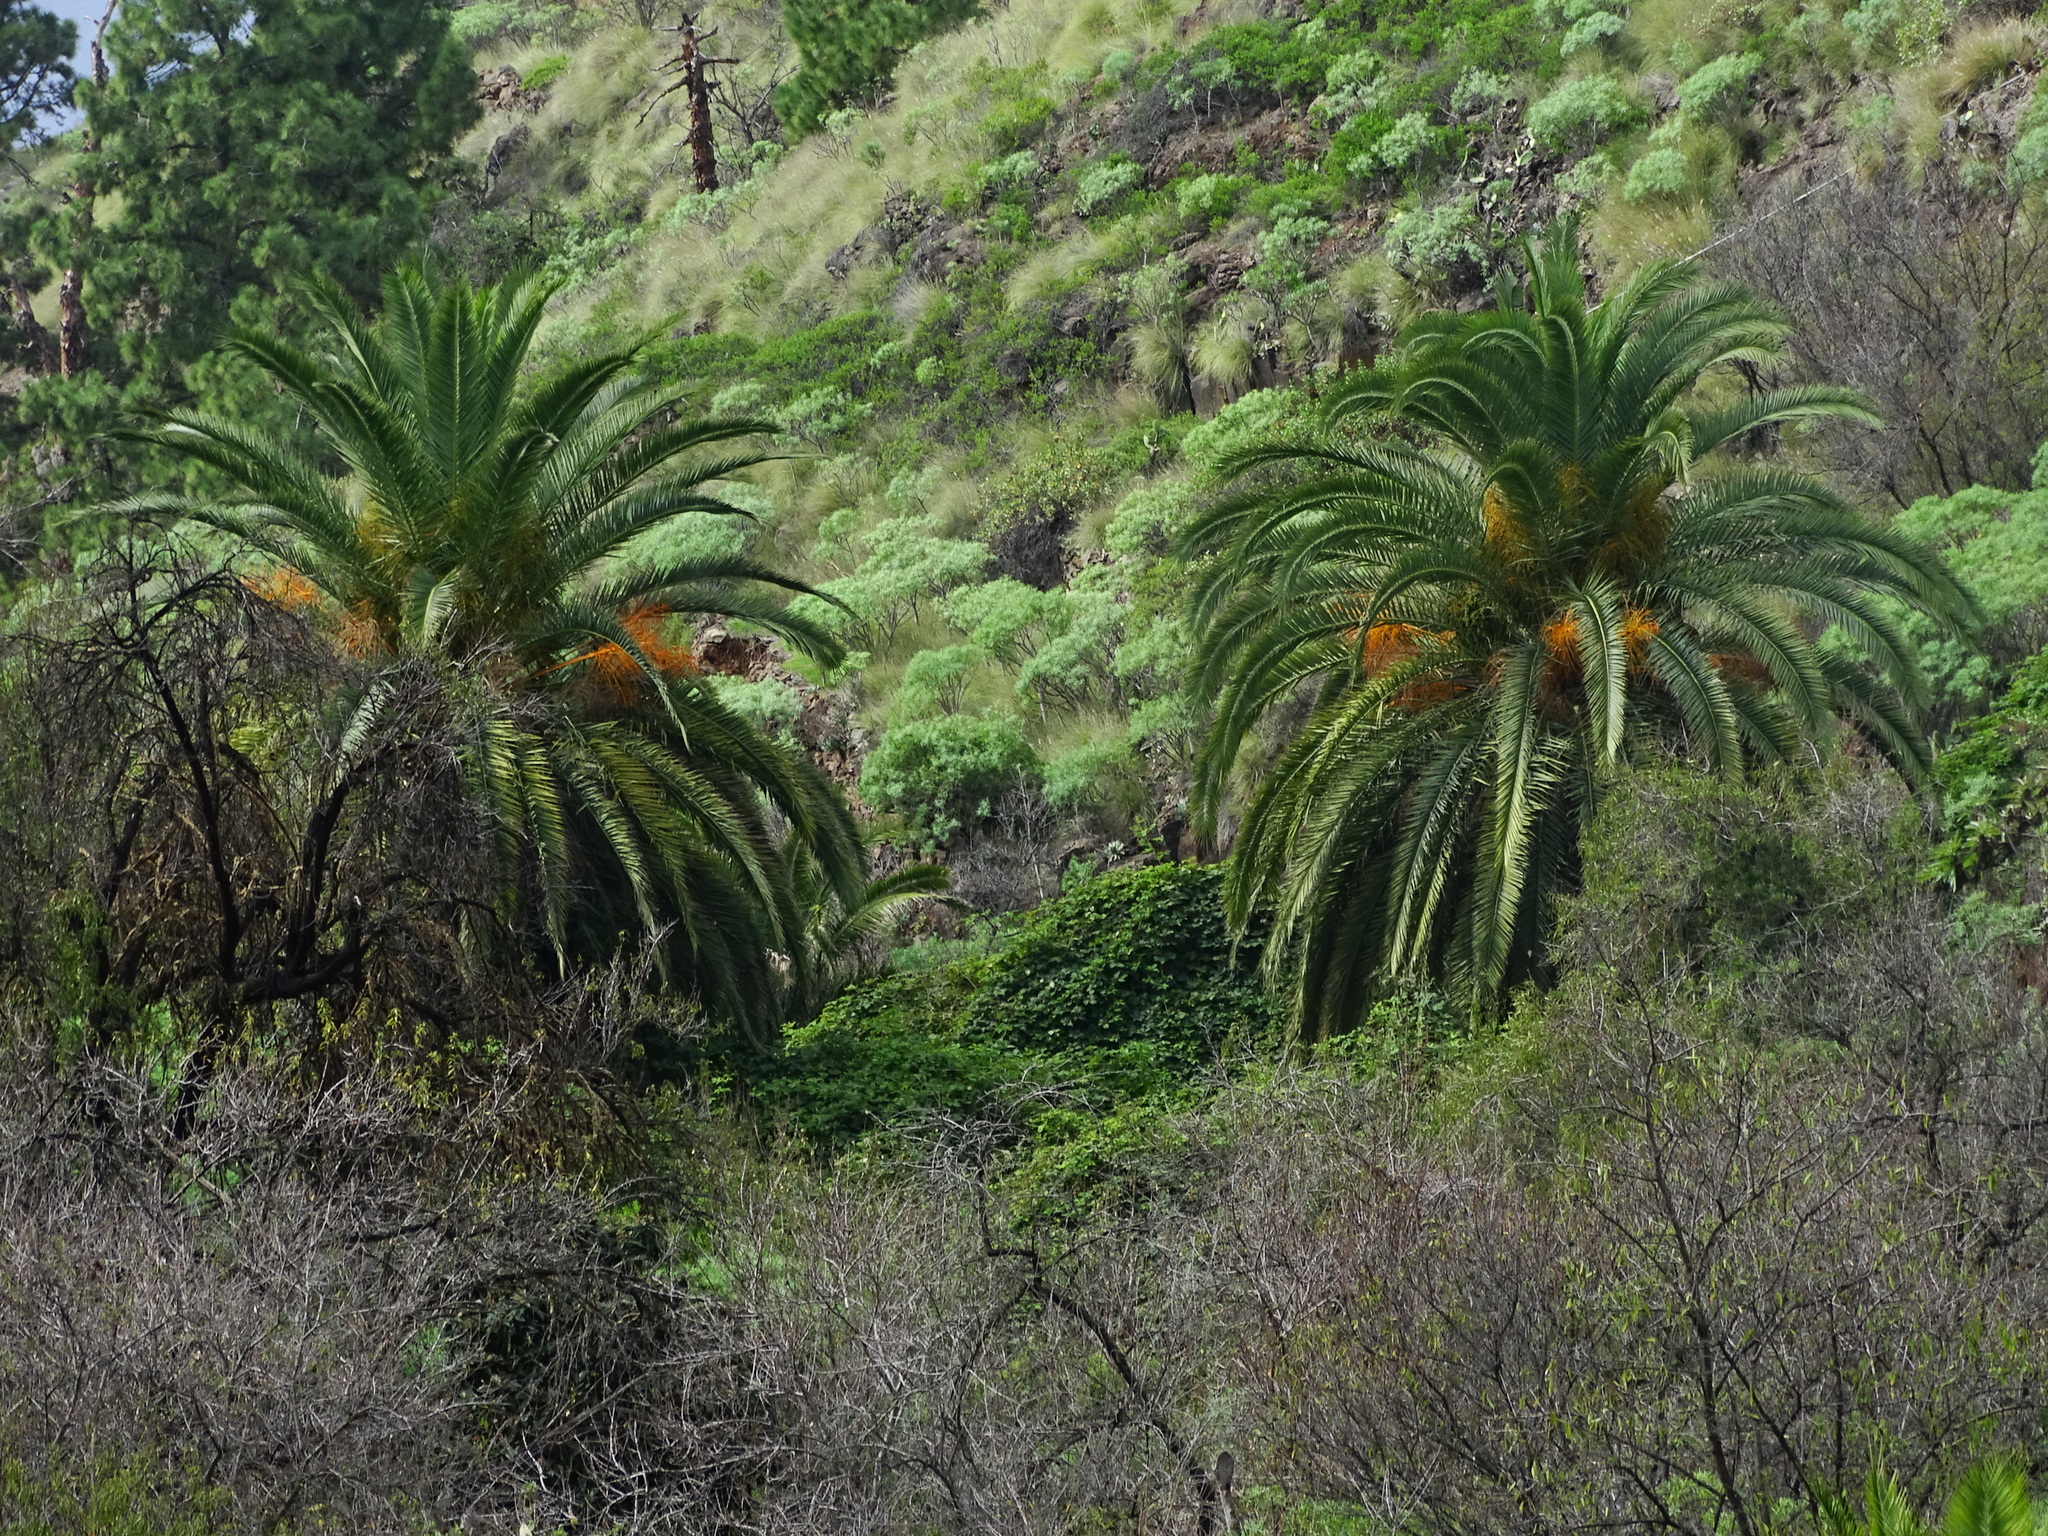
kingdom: Plantae
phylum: Tracheophyta
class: Liliopsida
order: Arecales
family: Arecaceae
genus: Phoenix
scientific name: Phoenix canariensis
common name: Canary island date palm
